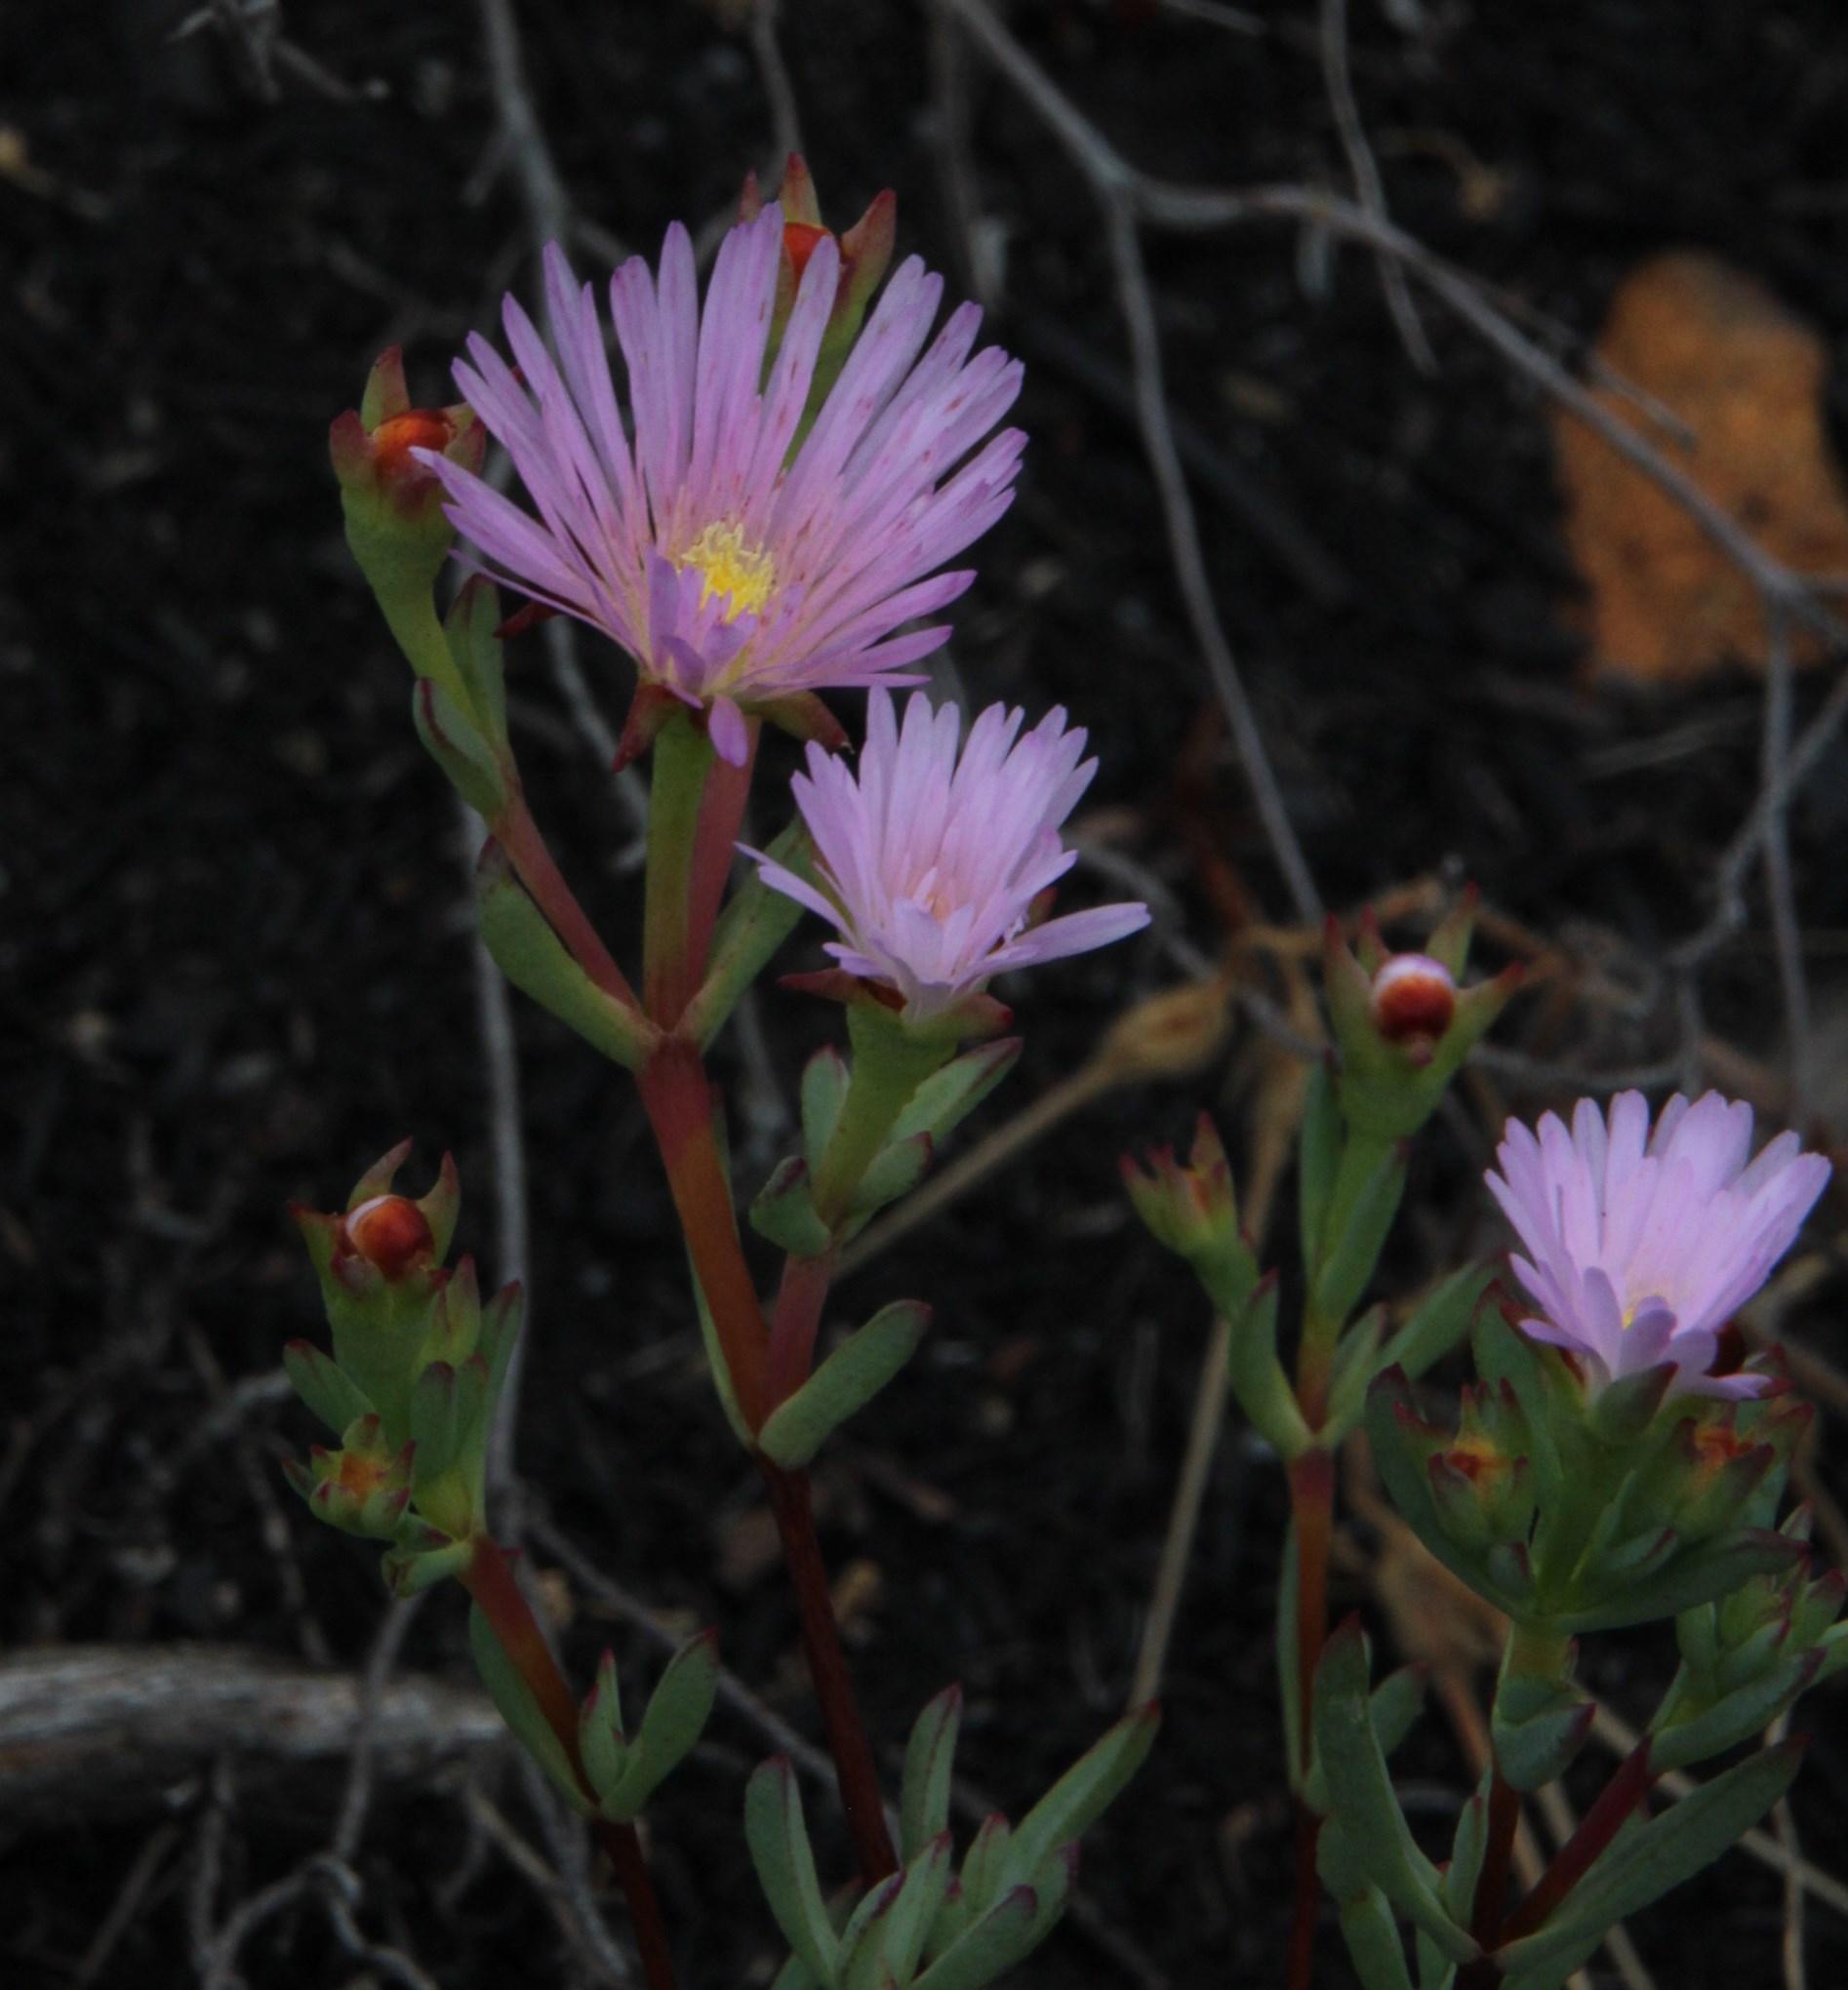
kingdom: Plantae
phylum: Tracheophyta
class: Magnoliopsida
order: Caryophyllales
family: Aizoaceae
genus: Lampranthus
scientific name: Lampranthus glomeratus
